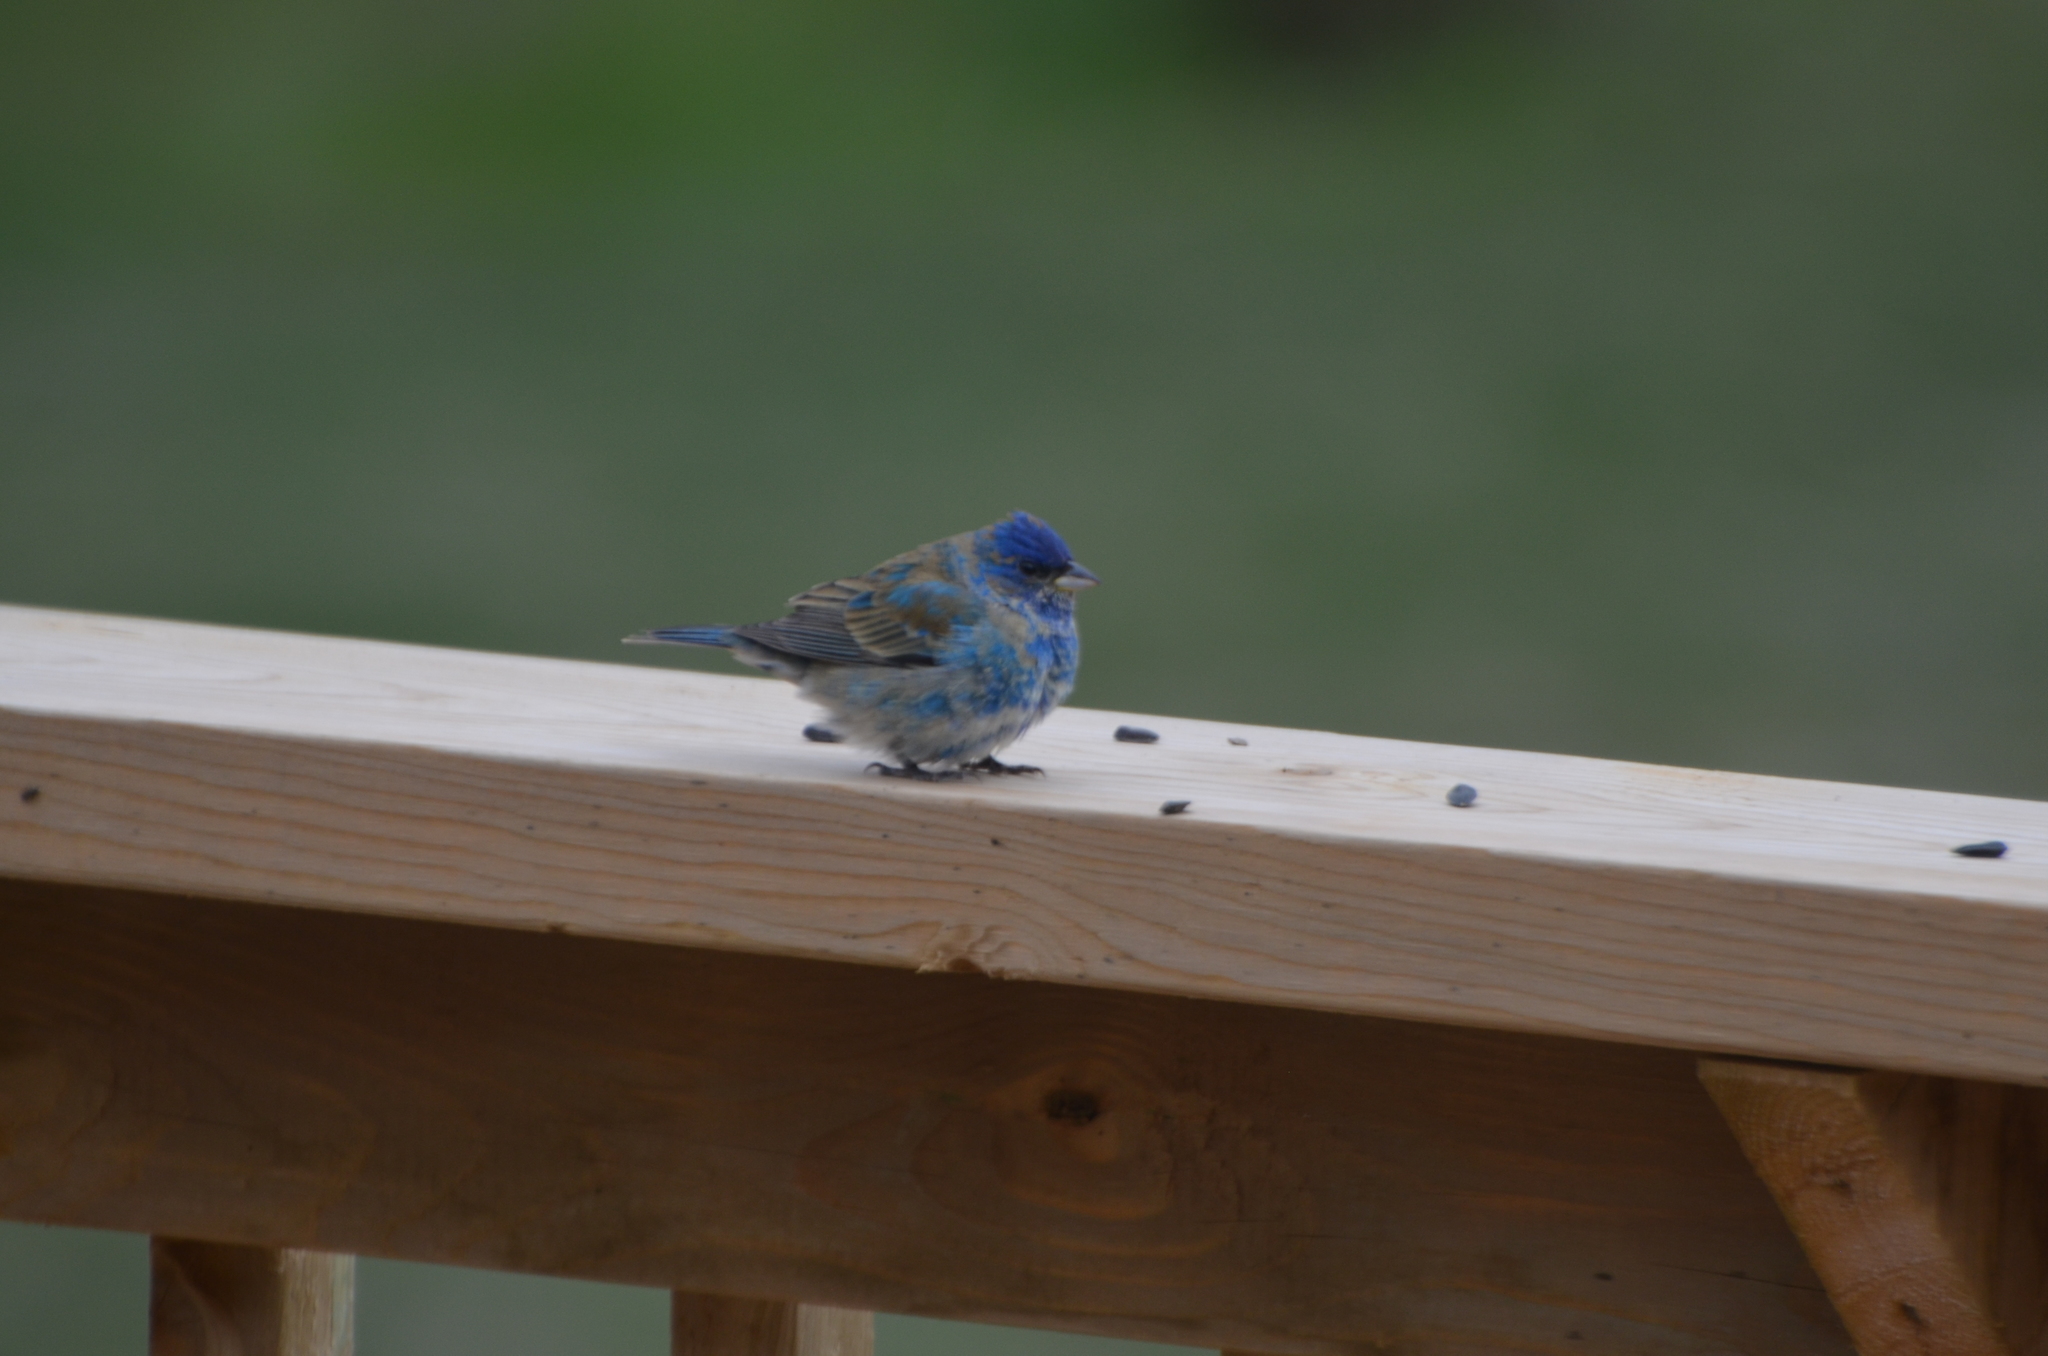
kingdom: Animalia
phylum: Chordata
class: Aves
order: Passeriformes
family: Cardinalidae
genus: Passerina
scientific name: Passerina cyanea
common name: Indigo bunting
